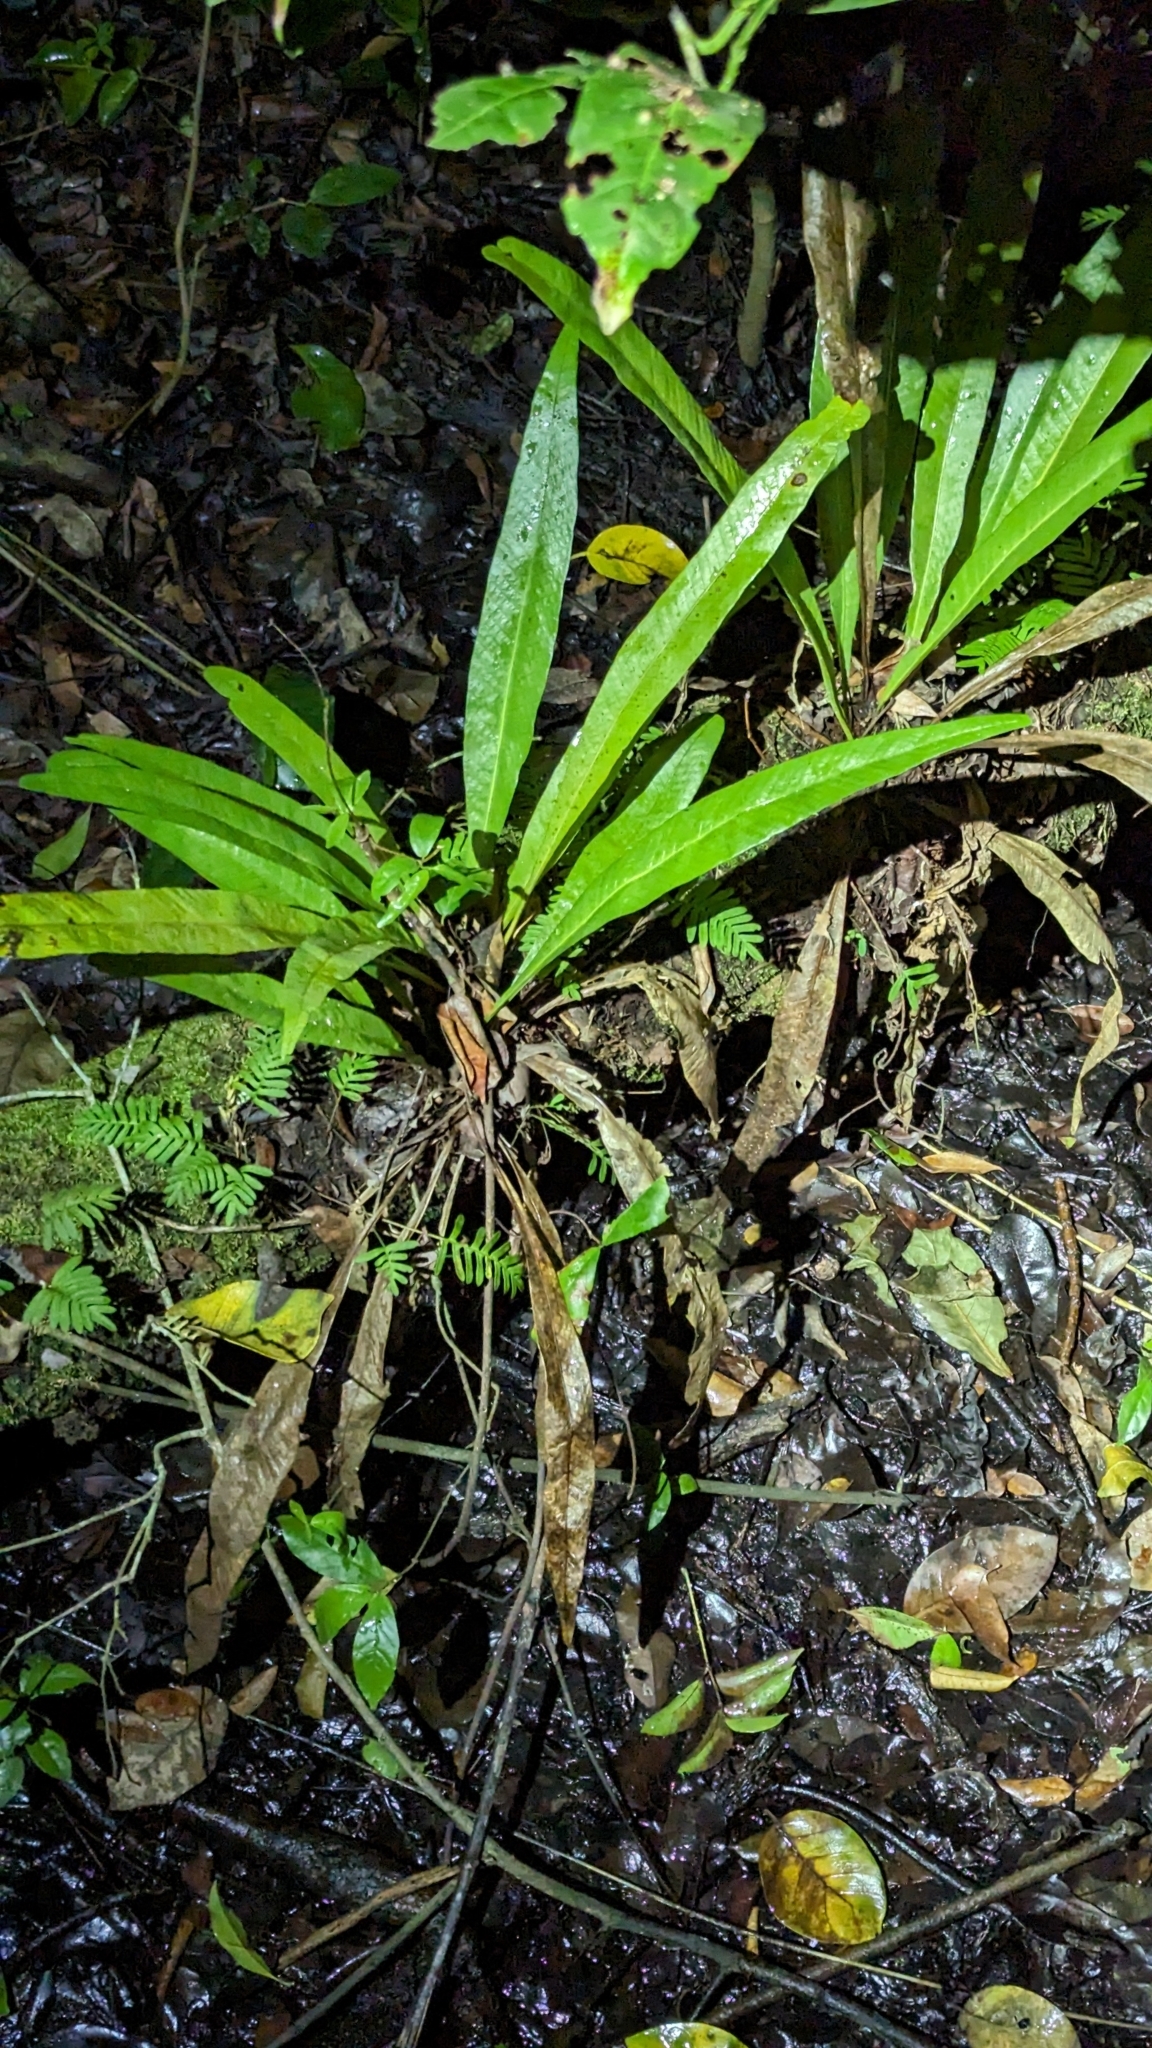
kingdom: Plantae
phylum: Tracheophyta
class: Polypodiopsida
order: Polypodiales
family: Polypodiaceae
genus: Campyloneurum
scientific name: Campyloneurum phyllitidis
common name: Cow-tongue fern
